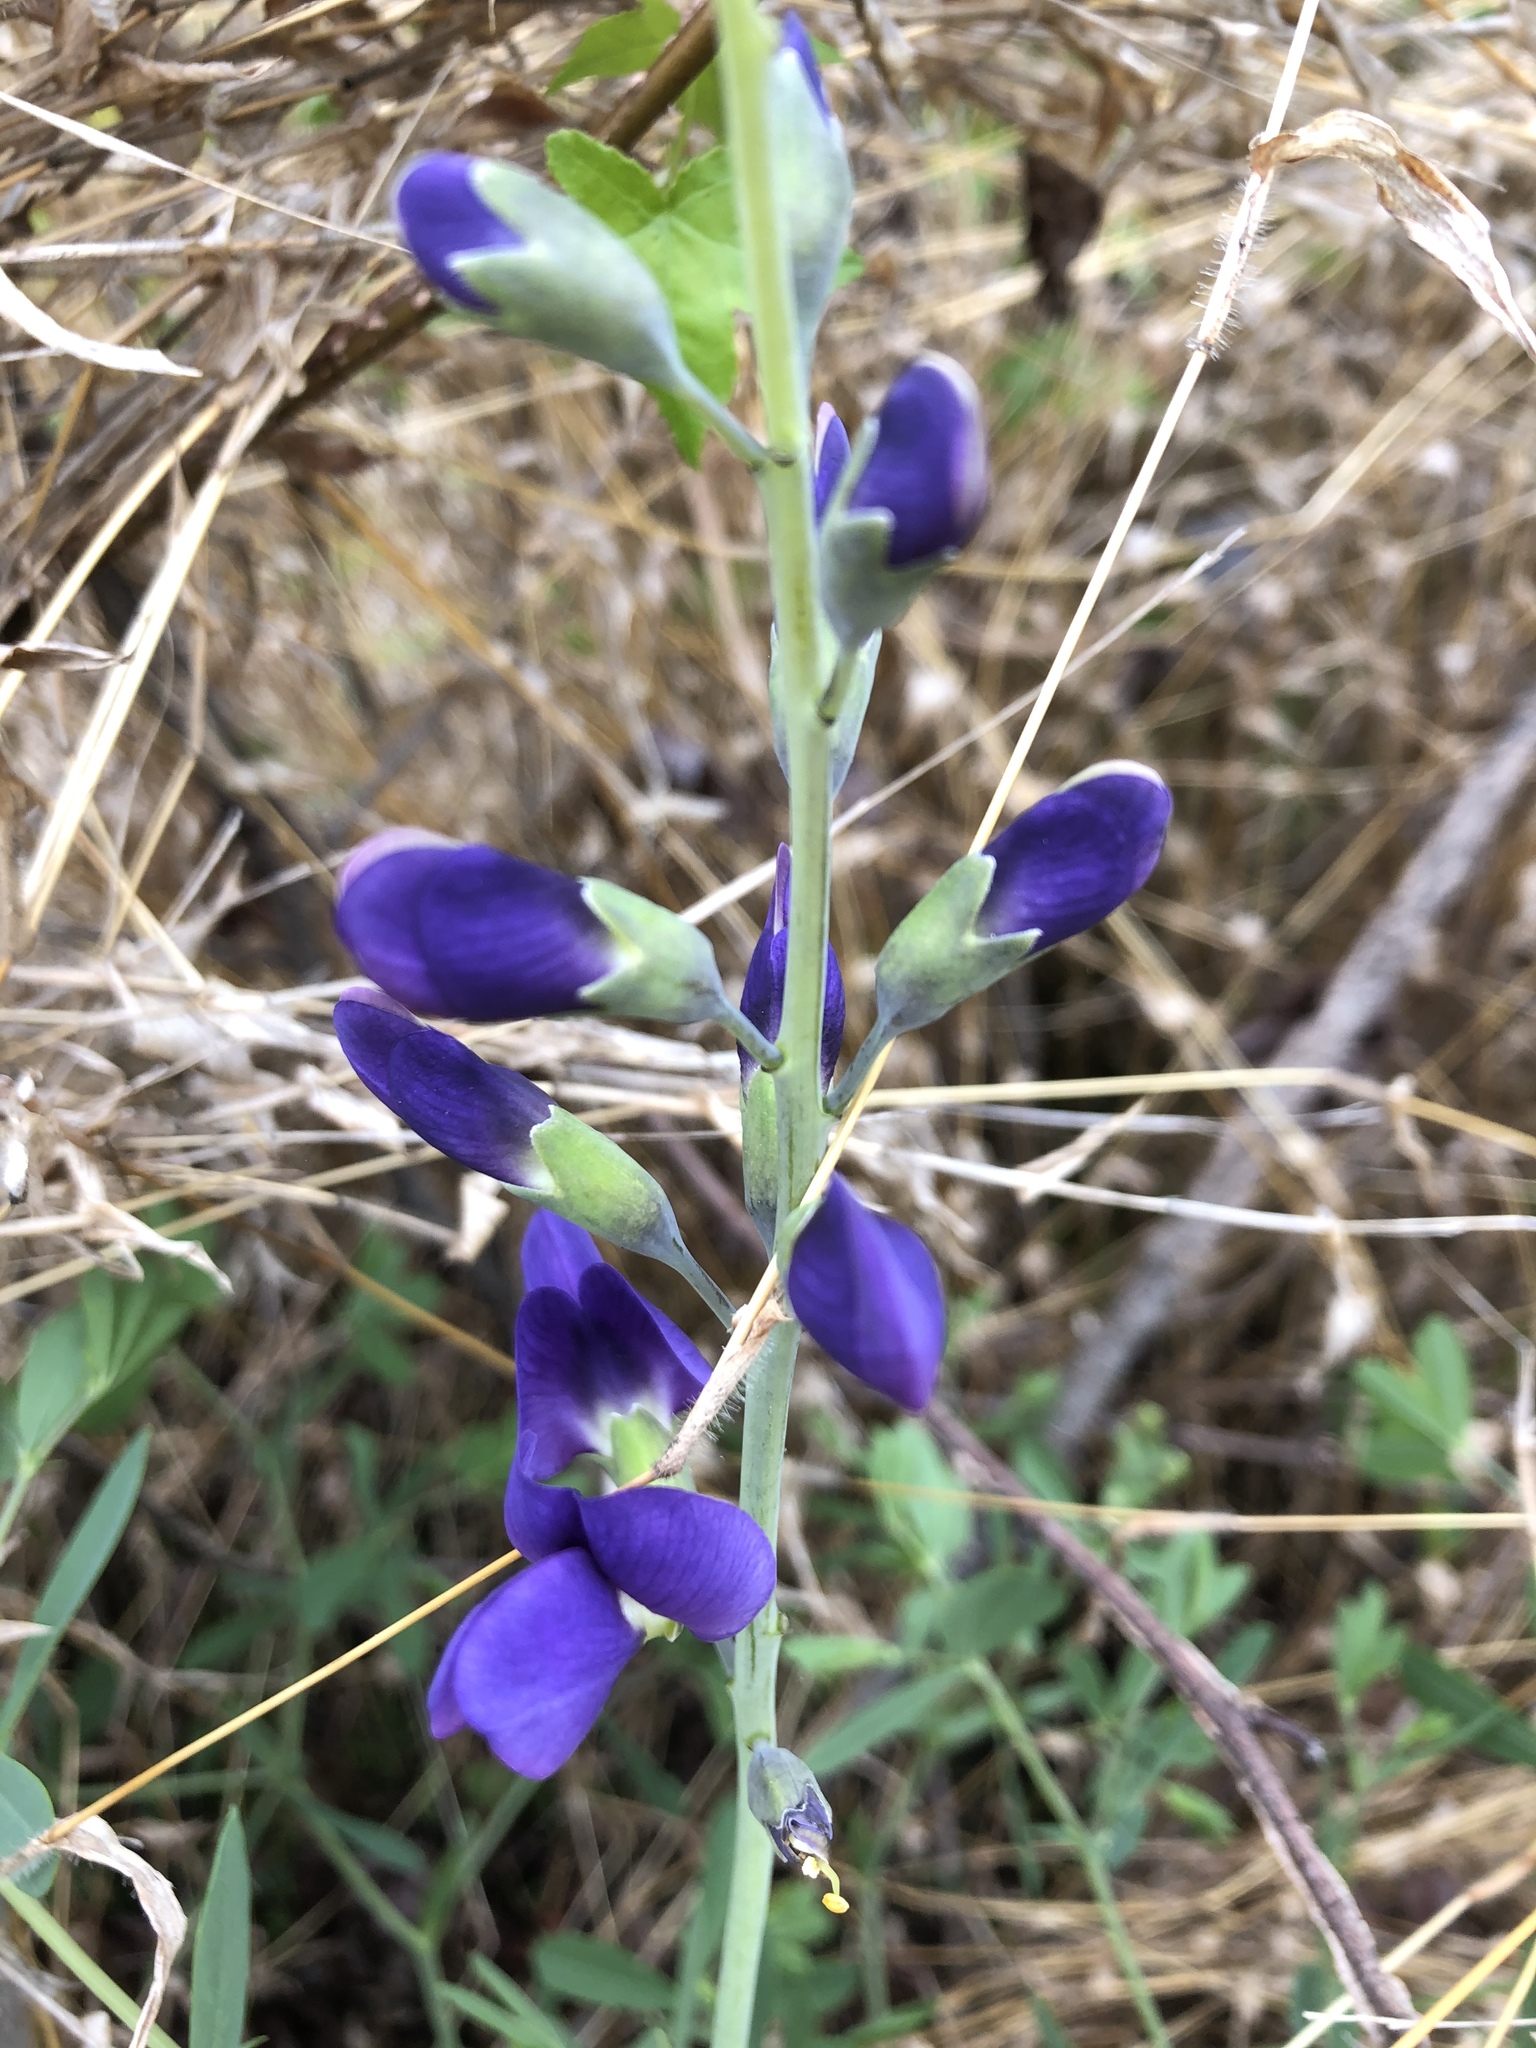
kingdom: Plantae
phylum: Tracheophyta
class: Magnoliopsida
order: Fabales
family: Fabaceae
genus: Baptisia
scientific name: Baptisia aberrans
